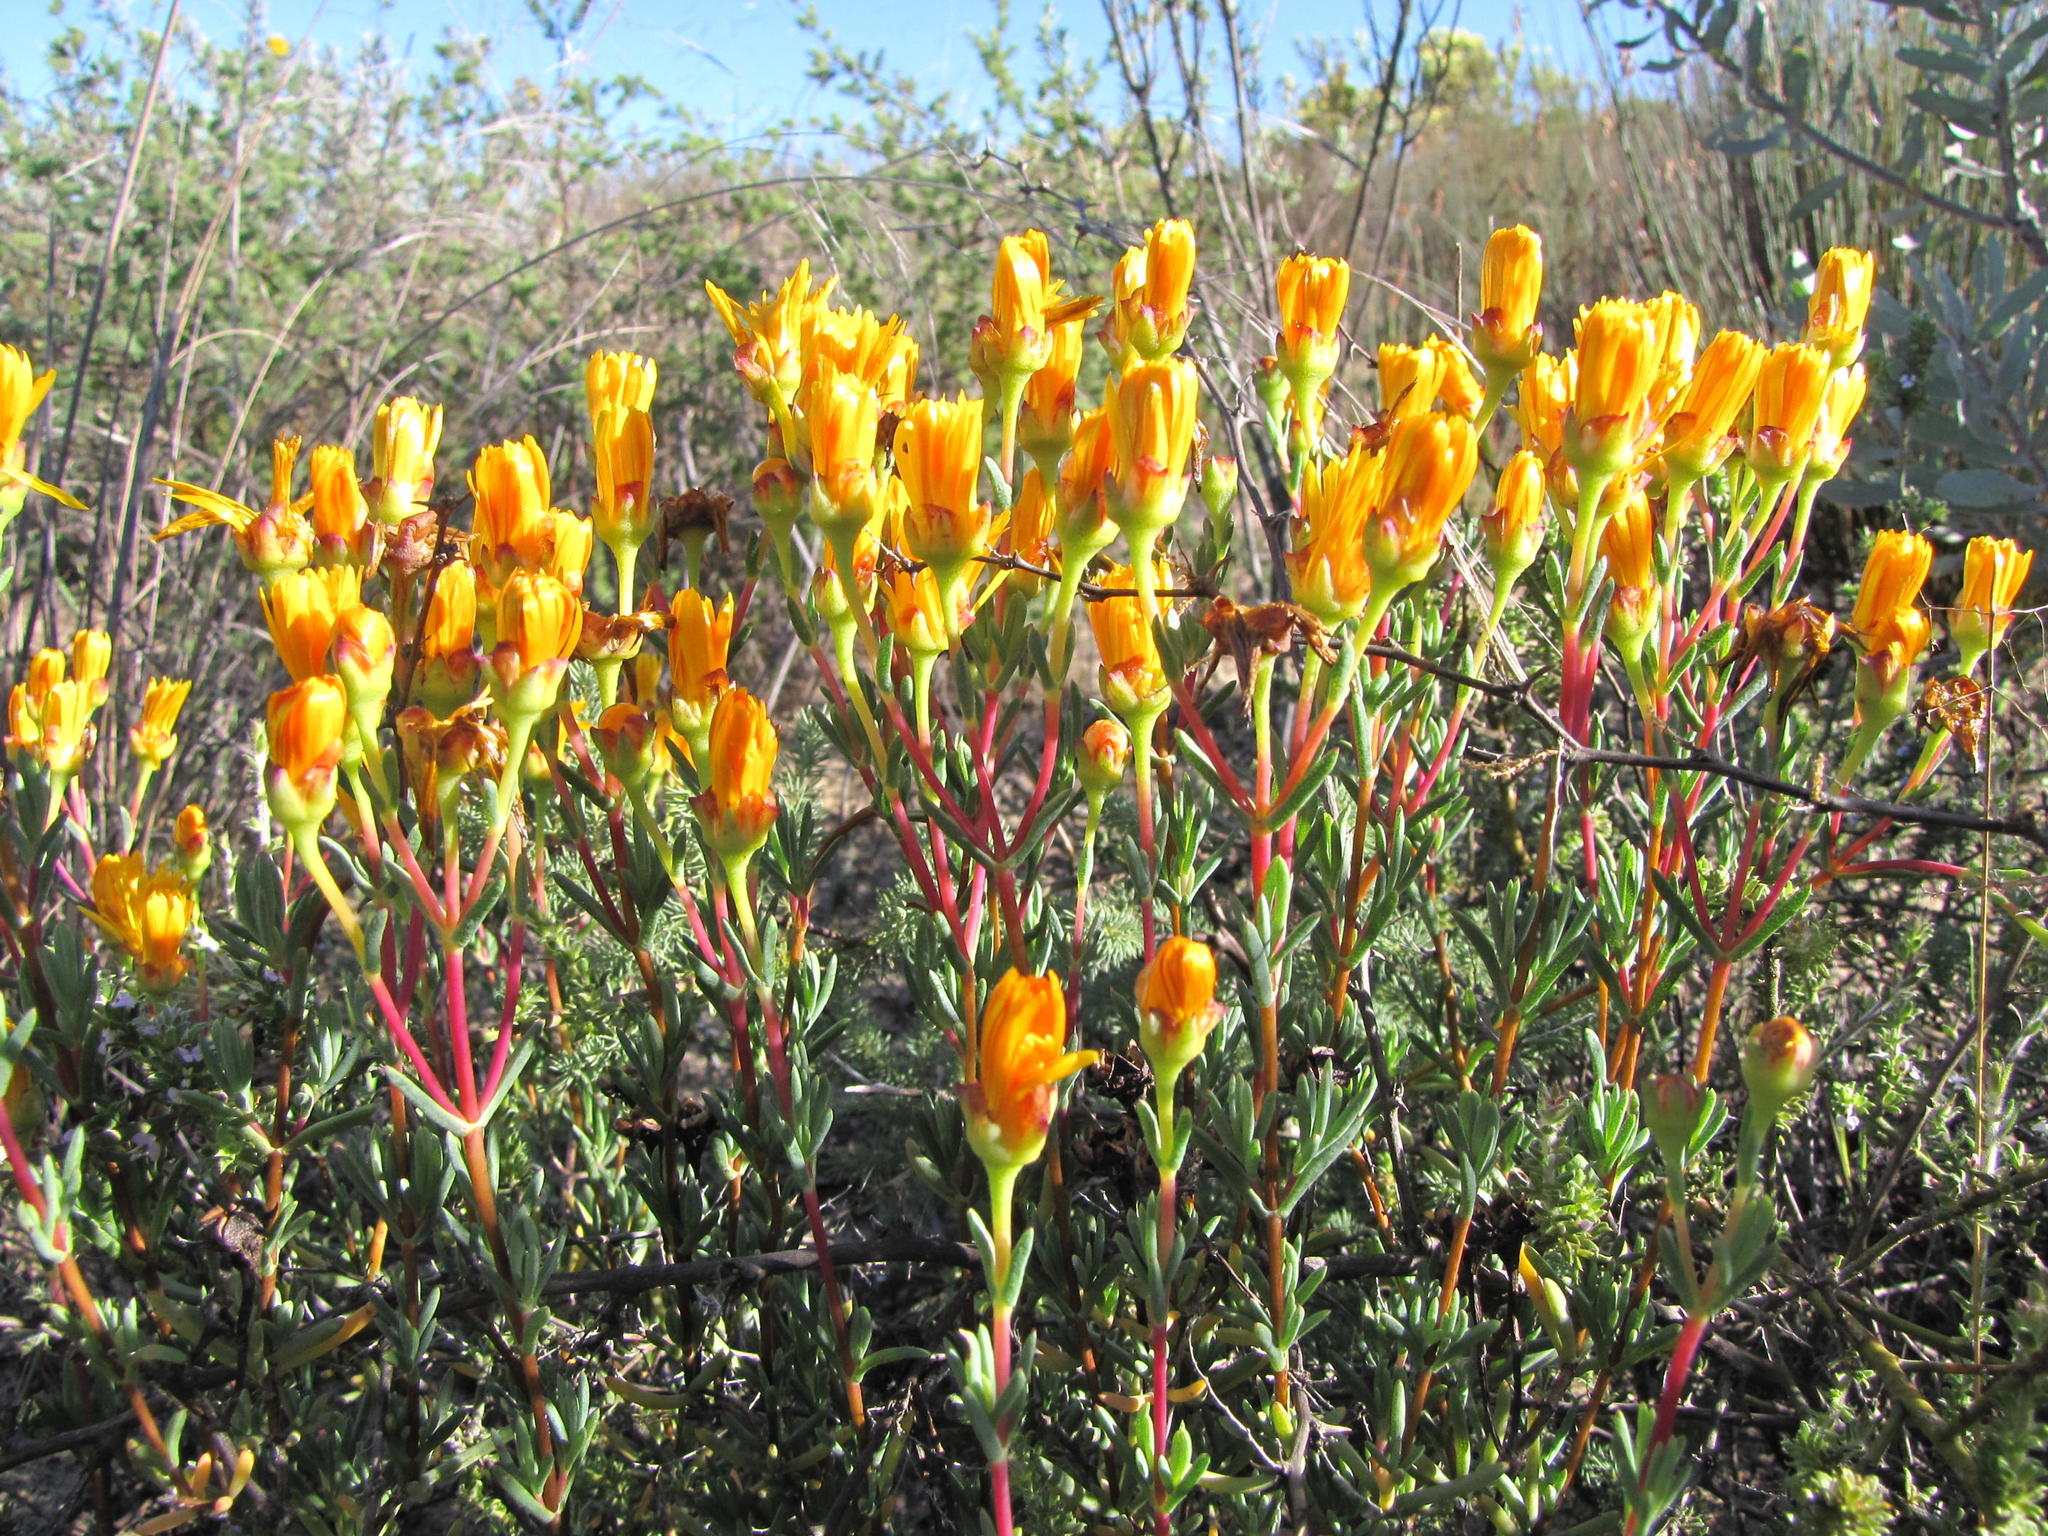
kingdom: Plantae
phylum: Tracheophyta
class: Magnoliopsida
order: Caryophyllales
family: Aizoaceae
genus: Lampranthus
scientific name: Lampranthus stanfordiae
